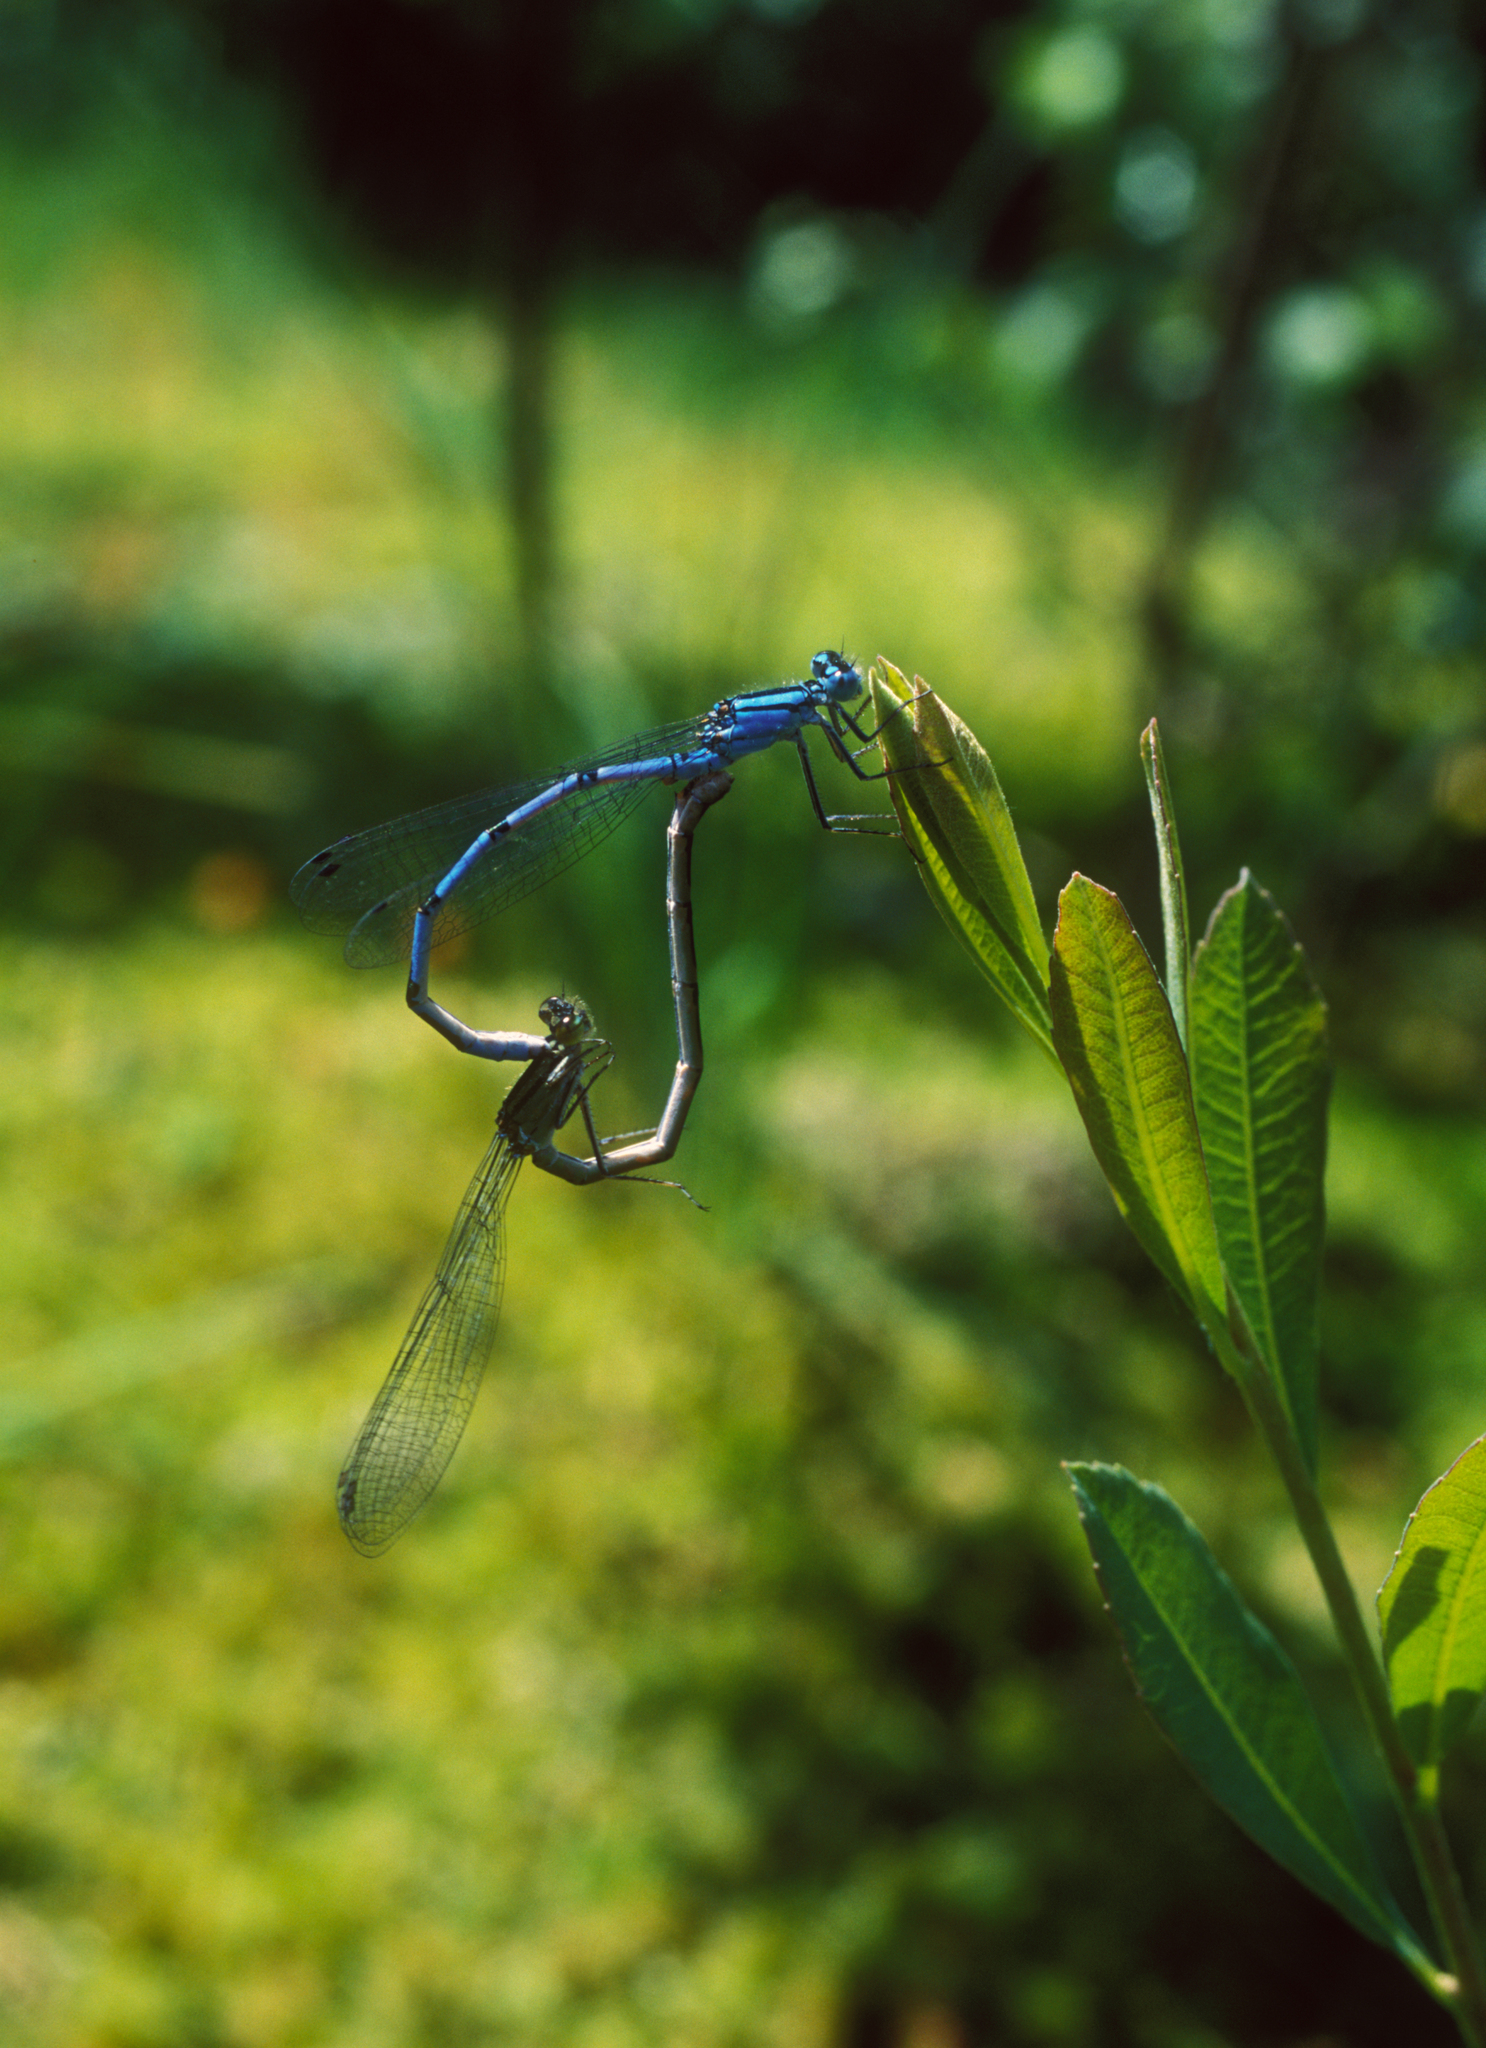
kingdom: Animalia
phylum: Arthropoda
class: Insecta
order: Odonata
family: Coenagrionidae
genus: Enallagma
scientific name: Enallagma cyathigerum
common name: Common blue damselfly
